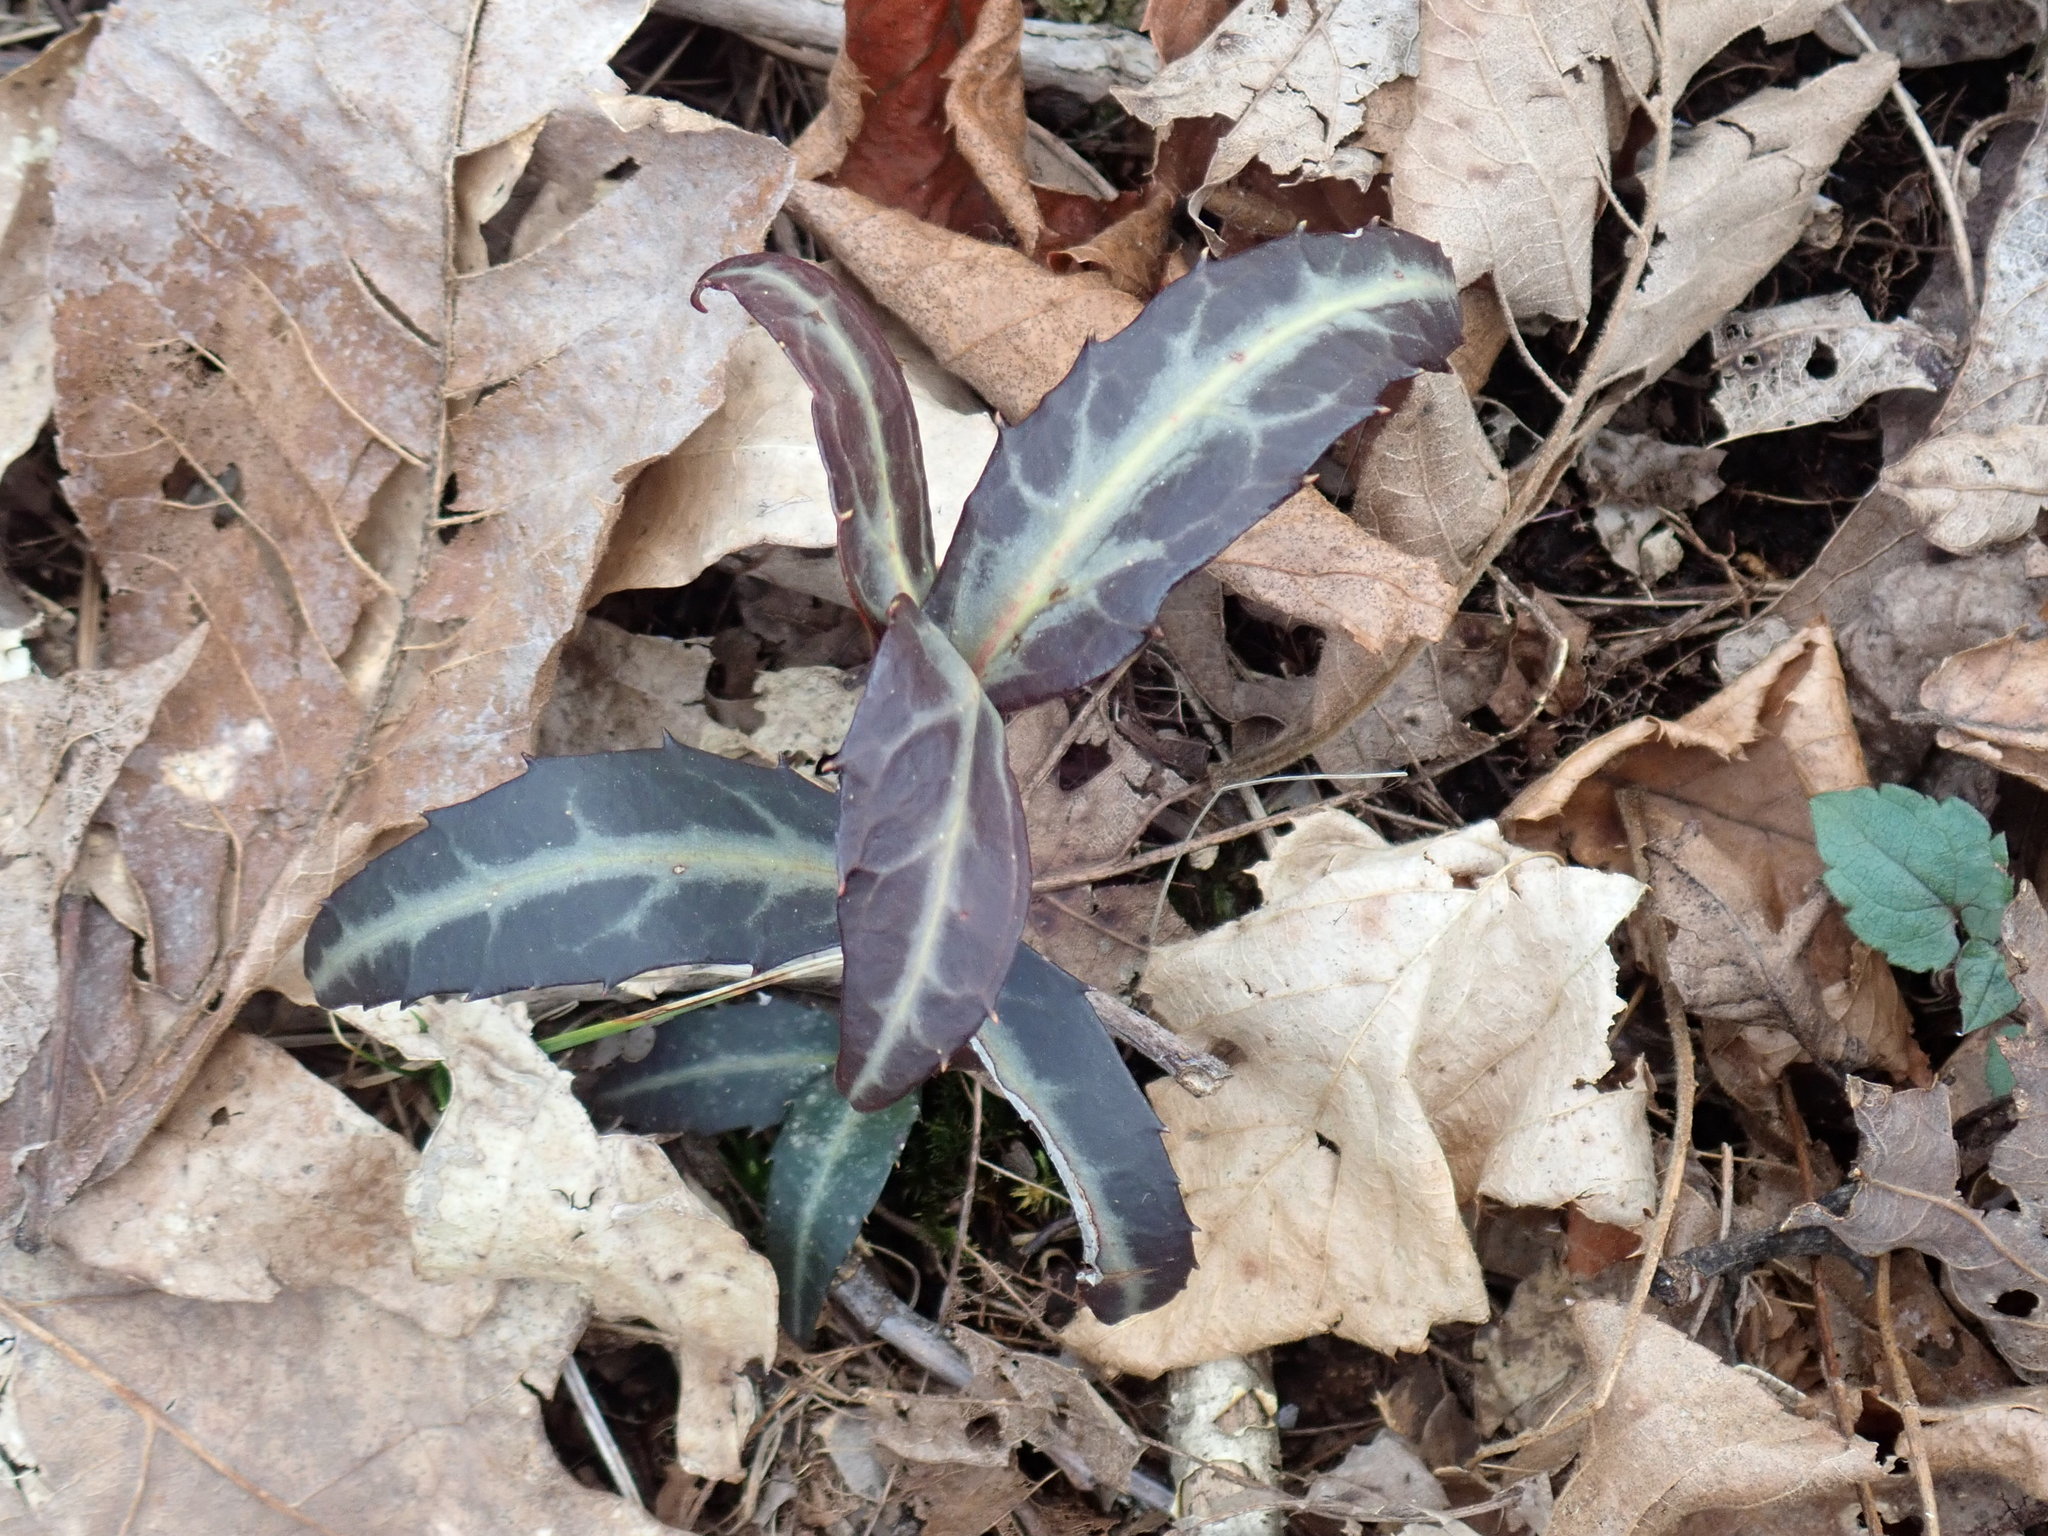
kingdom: Plantae
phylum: Tracheophyta
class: Magnoliopsida
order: Ericales
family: Ericaceae
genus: Chimaphila
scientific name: Chimaphila maculata
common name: Spotted pipsissewa
